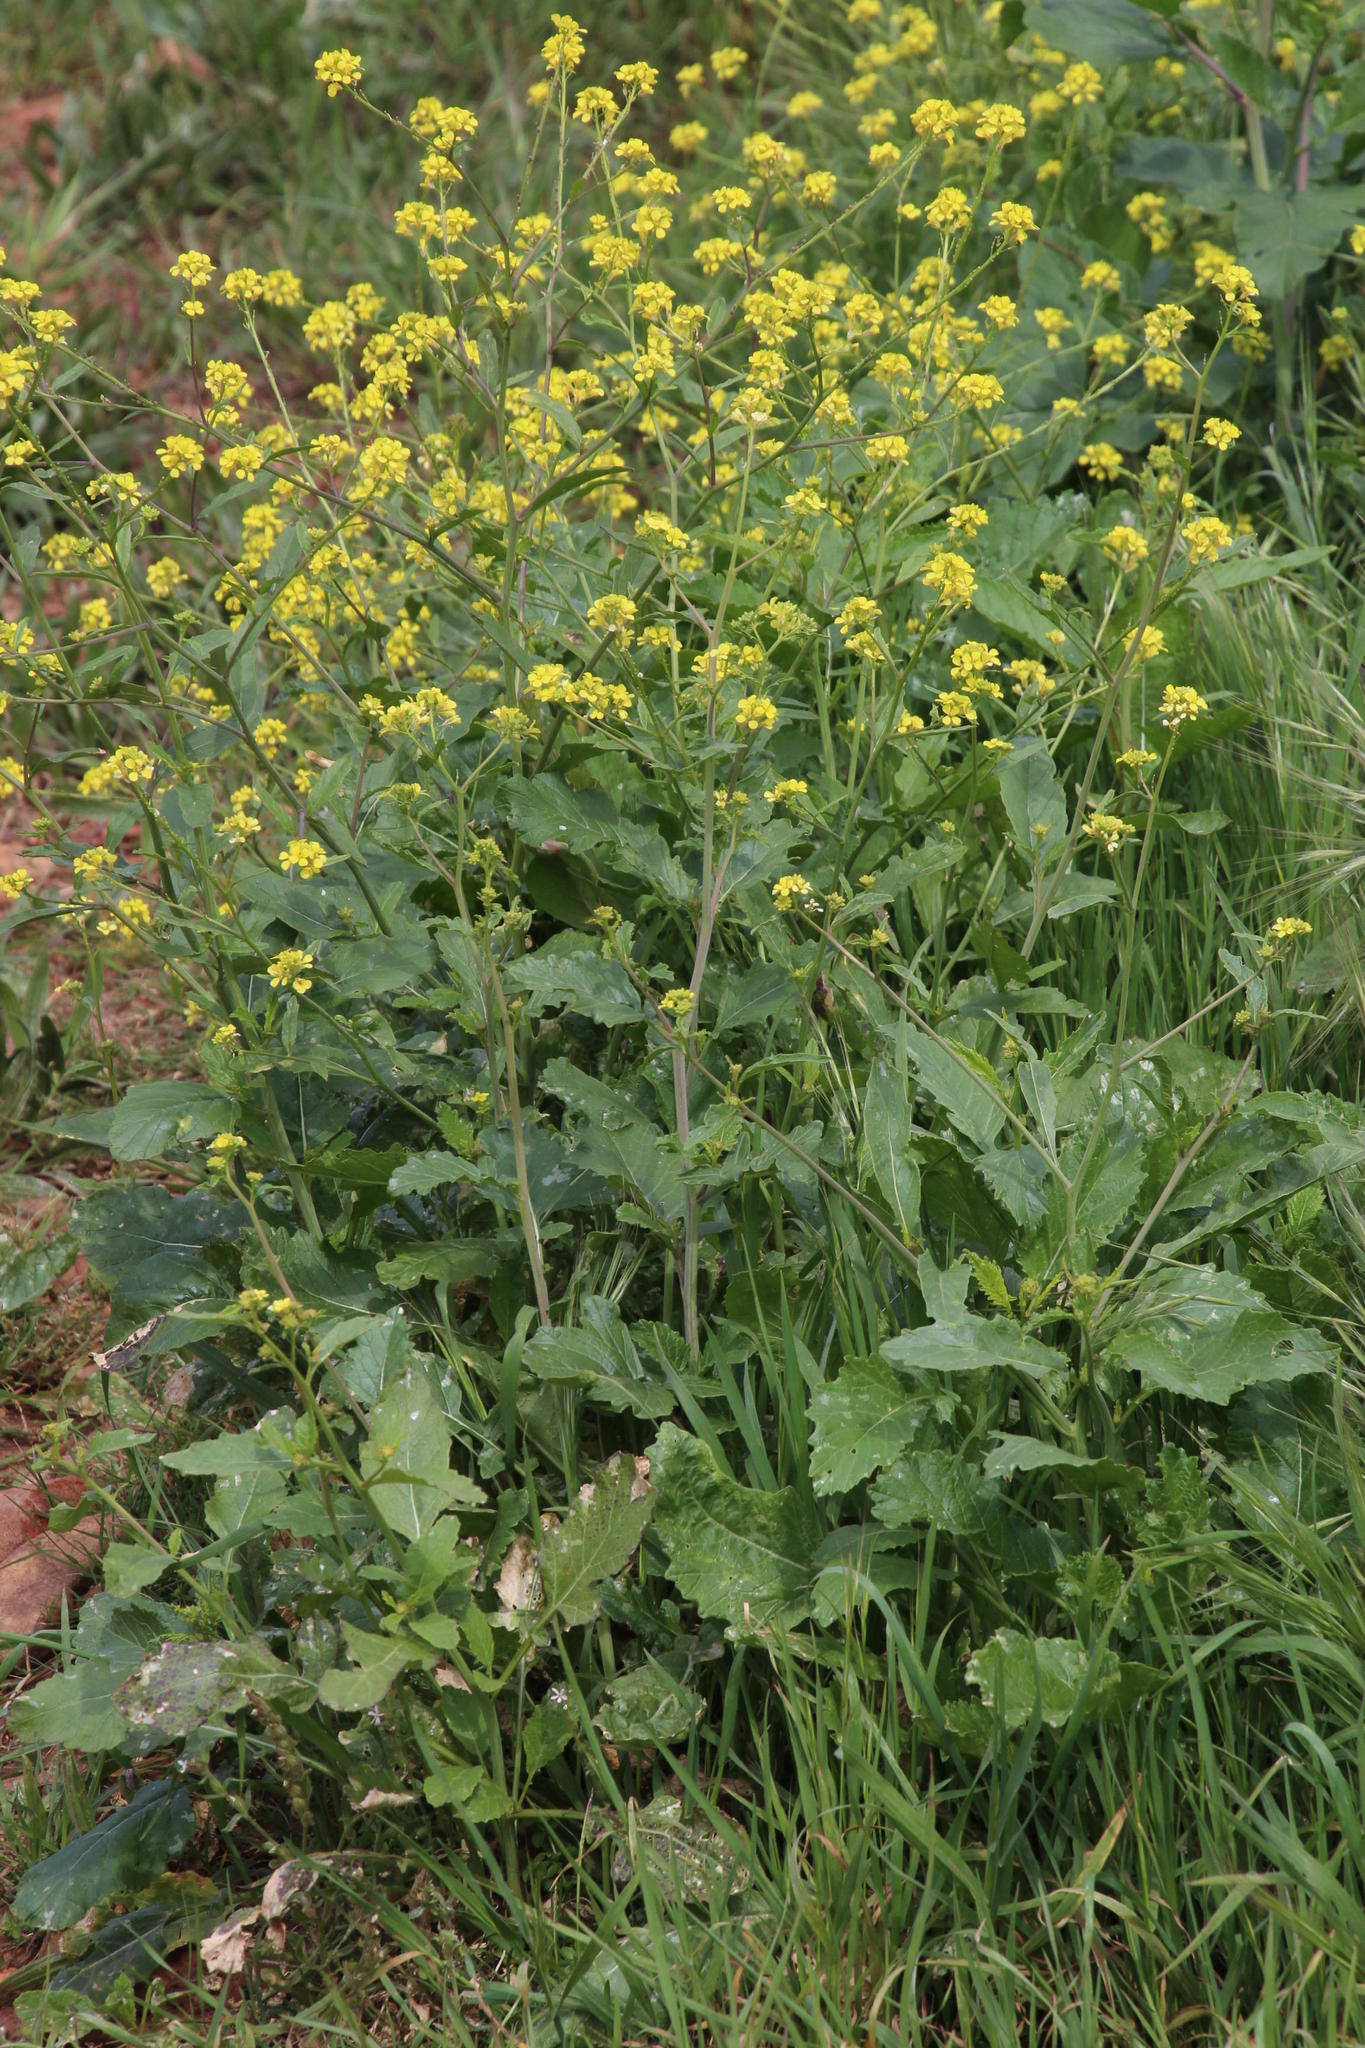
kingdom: Plantae
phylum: Tracheophyta
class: Magnoliopsida
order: Brassicales
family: Brassicaceae
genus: Rapistrum
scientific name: Rapistrum rugosum
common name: Annual bastardcabbage
